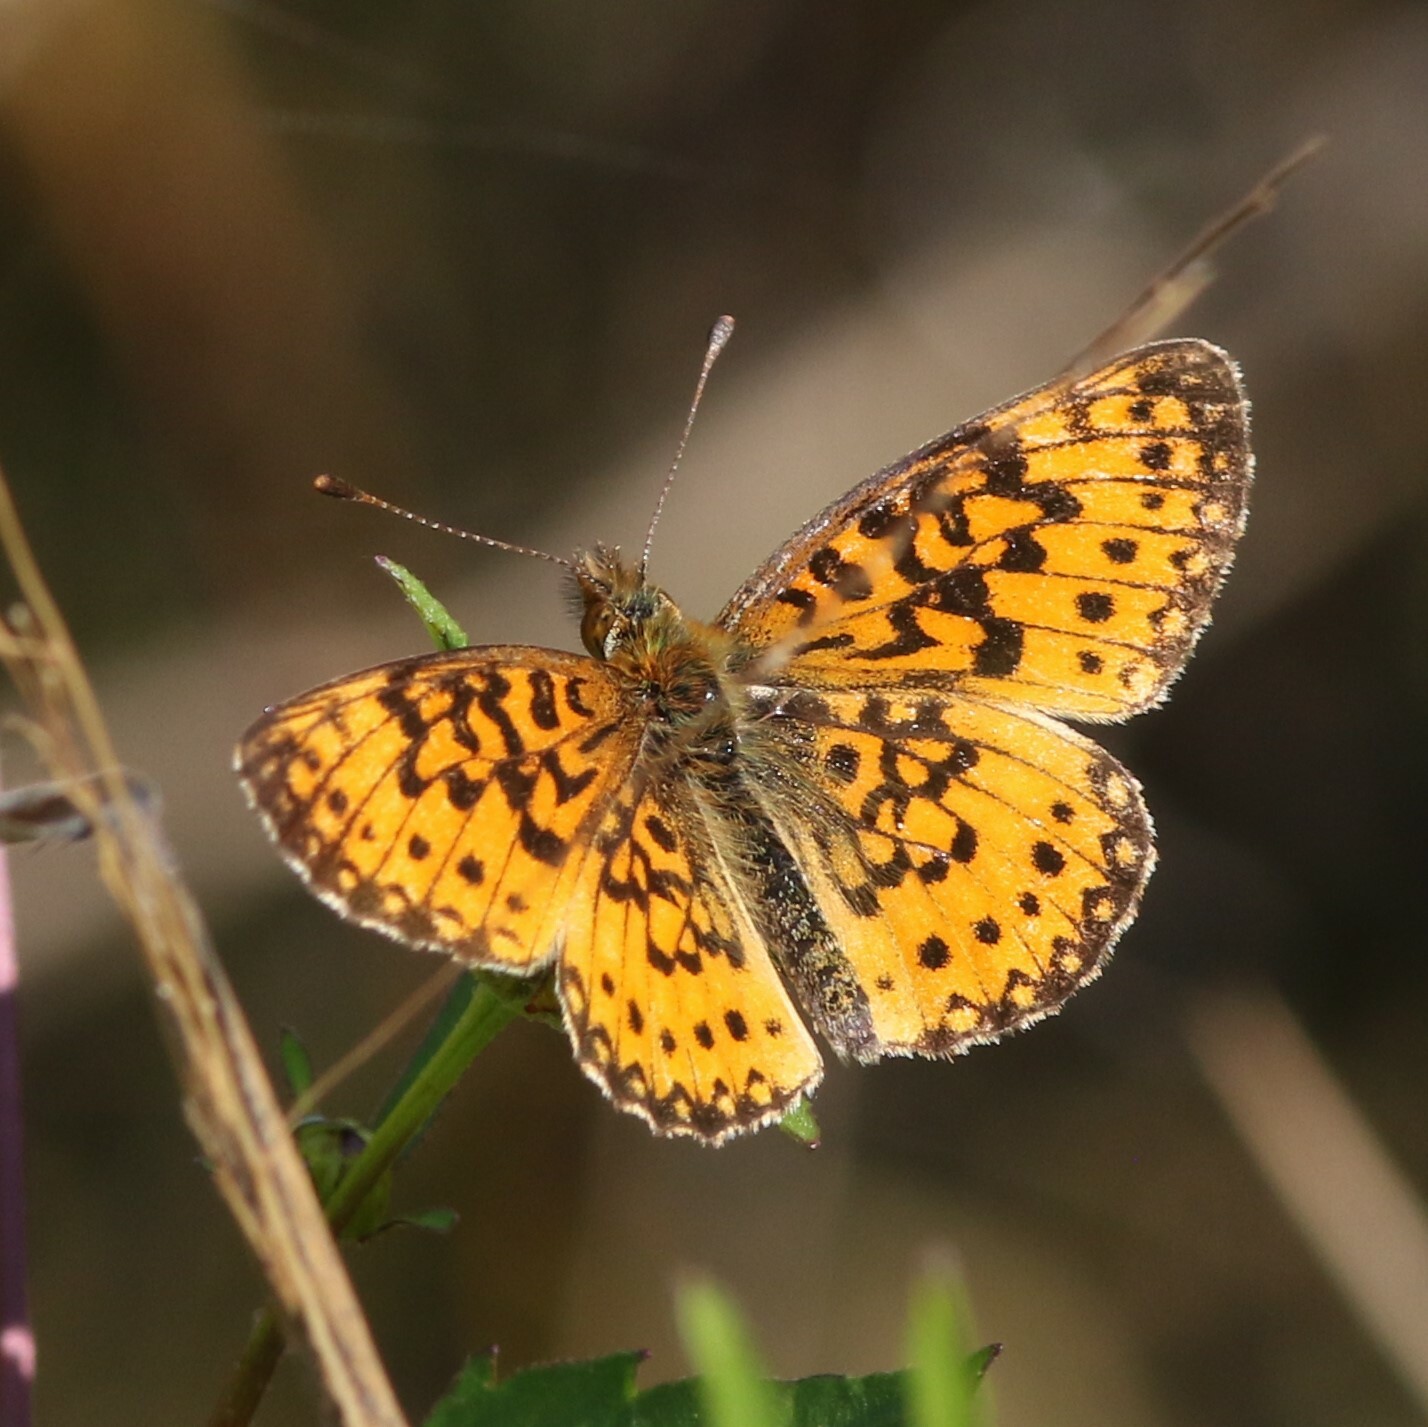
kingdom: Animalia
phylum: Arthropoda
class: Insecta
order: Lepidoptera
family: Nymphalidae
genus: Boloria
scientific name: Boloria
